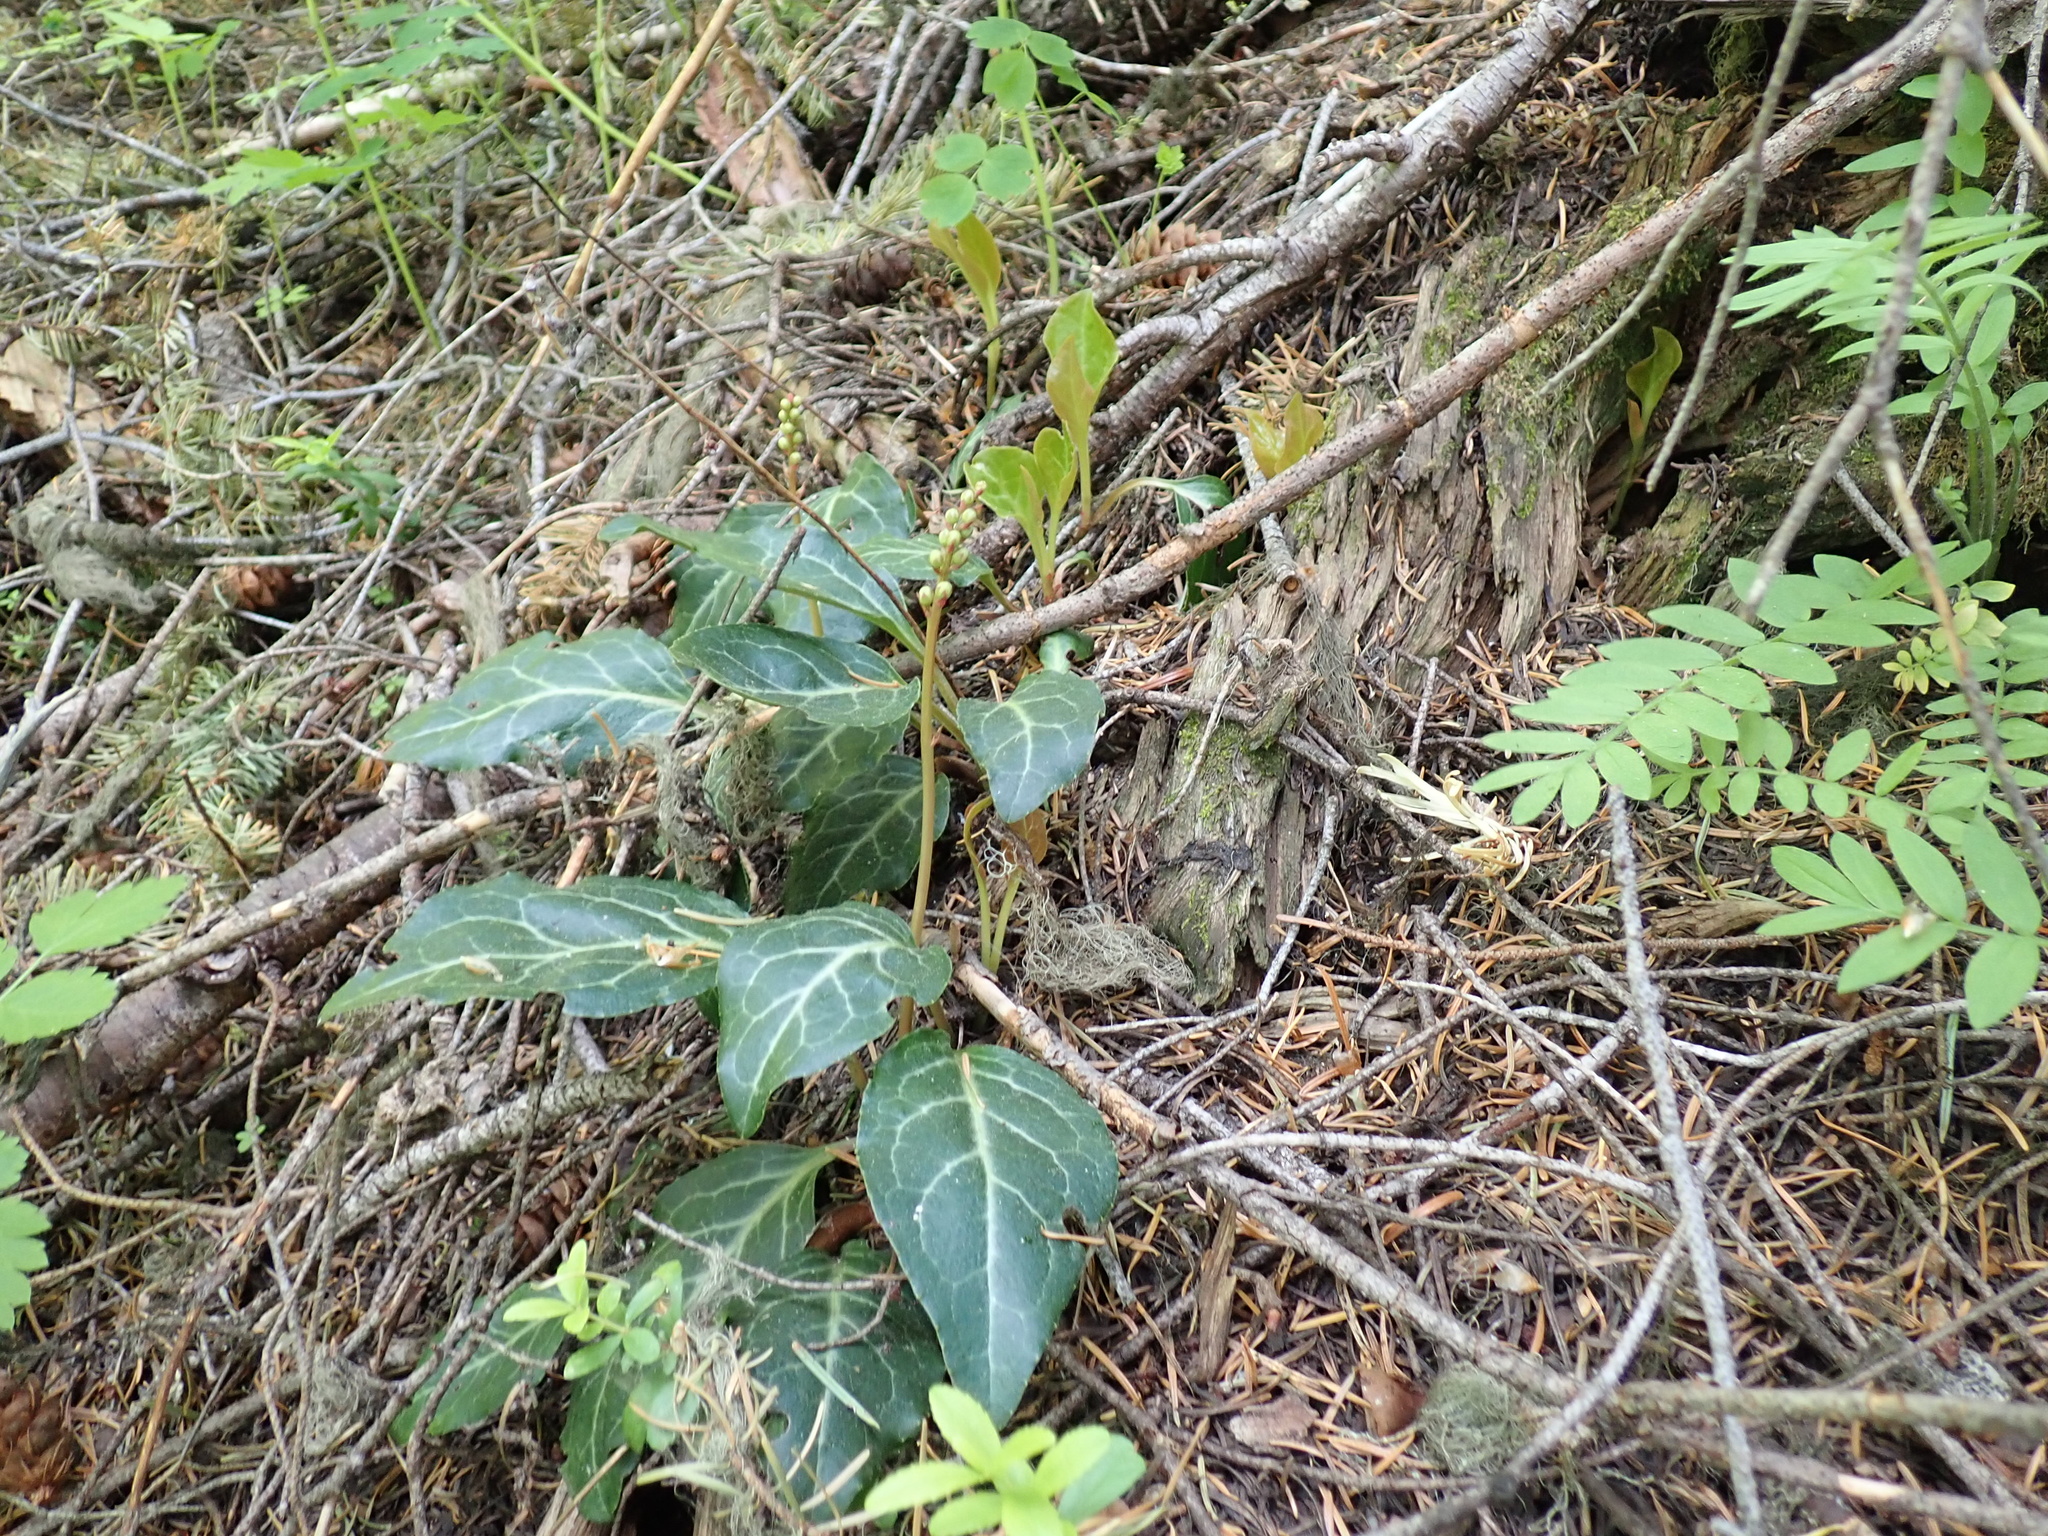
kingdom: Plantae
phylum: Tracheophyta
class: Magnoliopsida
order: Ericales
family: Ericaceae
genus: Pyrola
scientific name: Pyrola picta
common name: White-vein wintergreen
